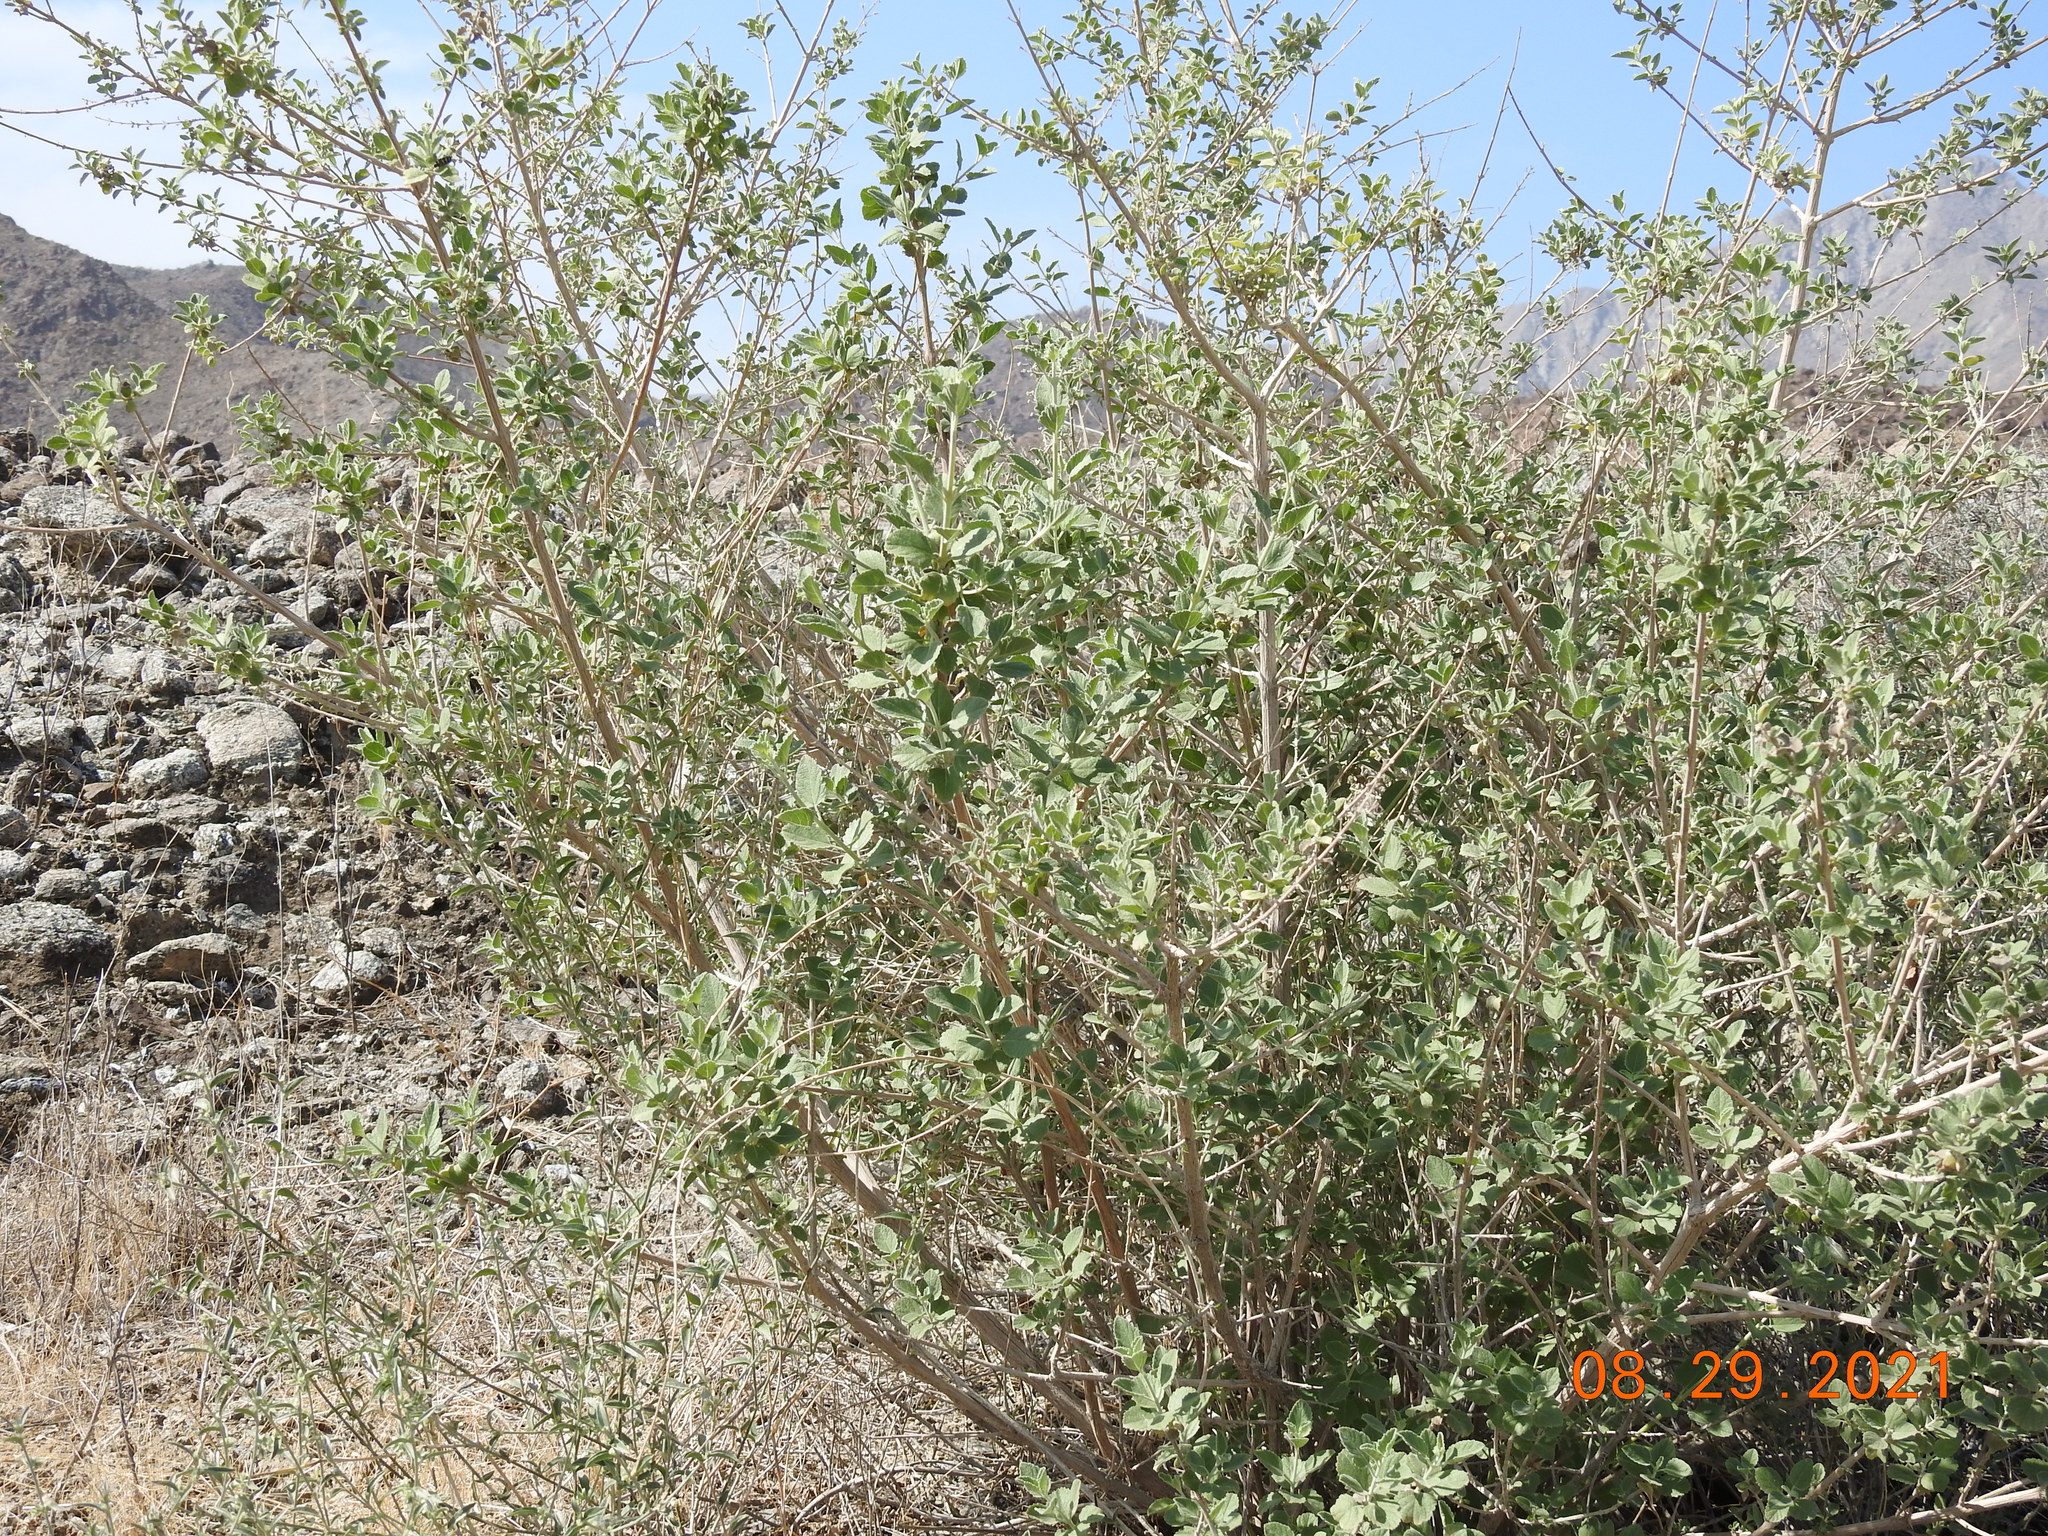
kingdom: Plantae
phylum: Tracheophyta
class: Magnoliopsida
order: Lamiales
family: Lamiaceae
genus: Condea
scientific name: Condea emoryi
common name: Chia
